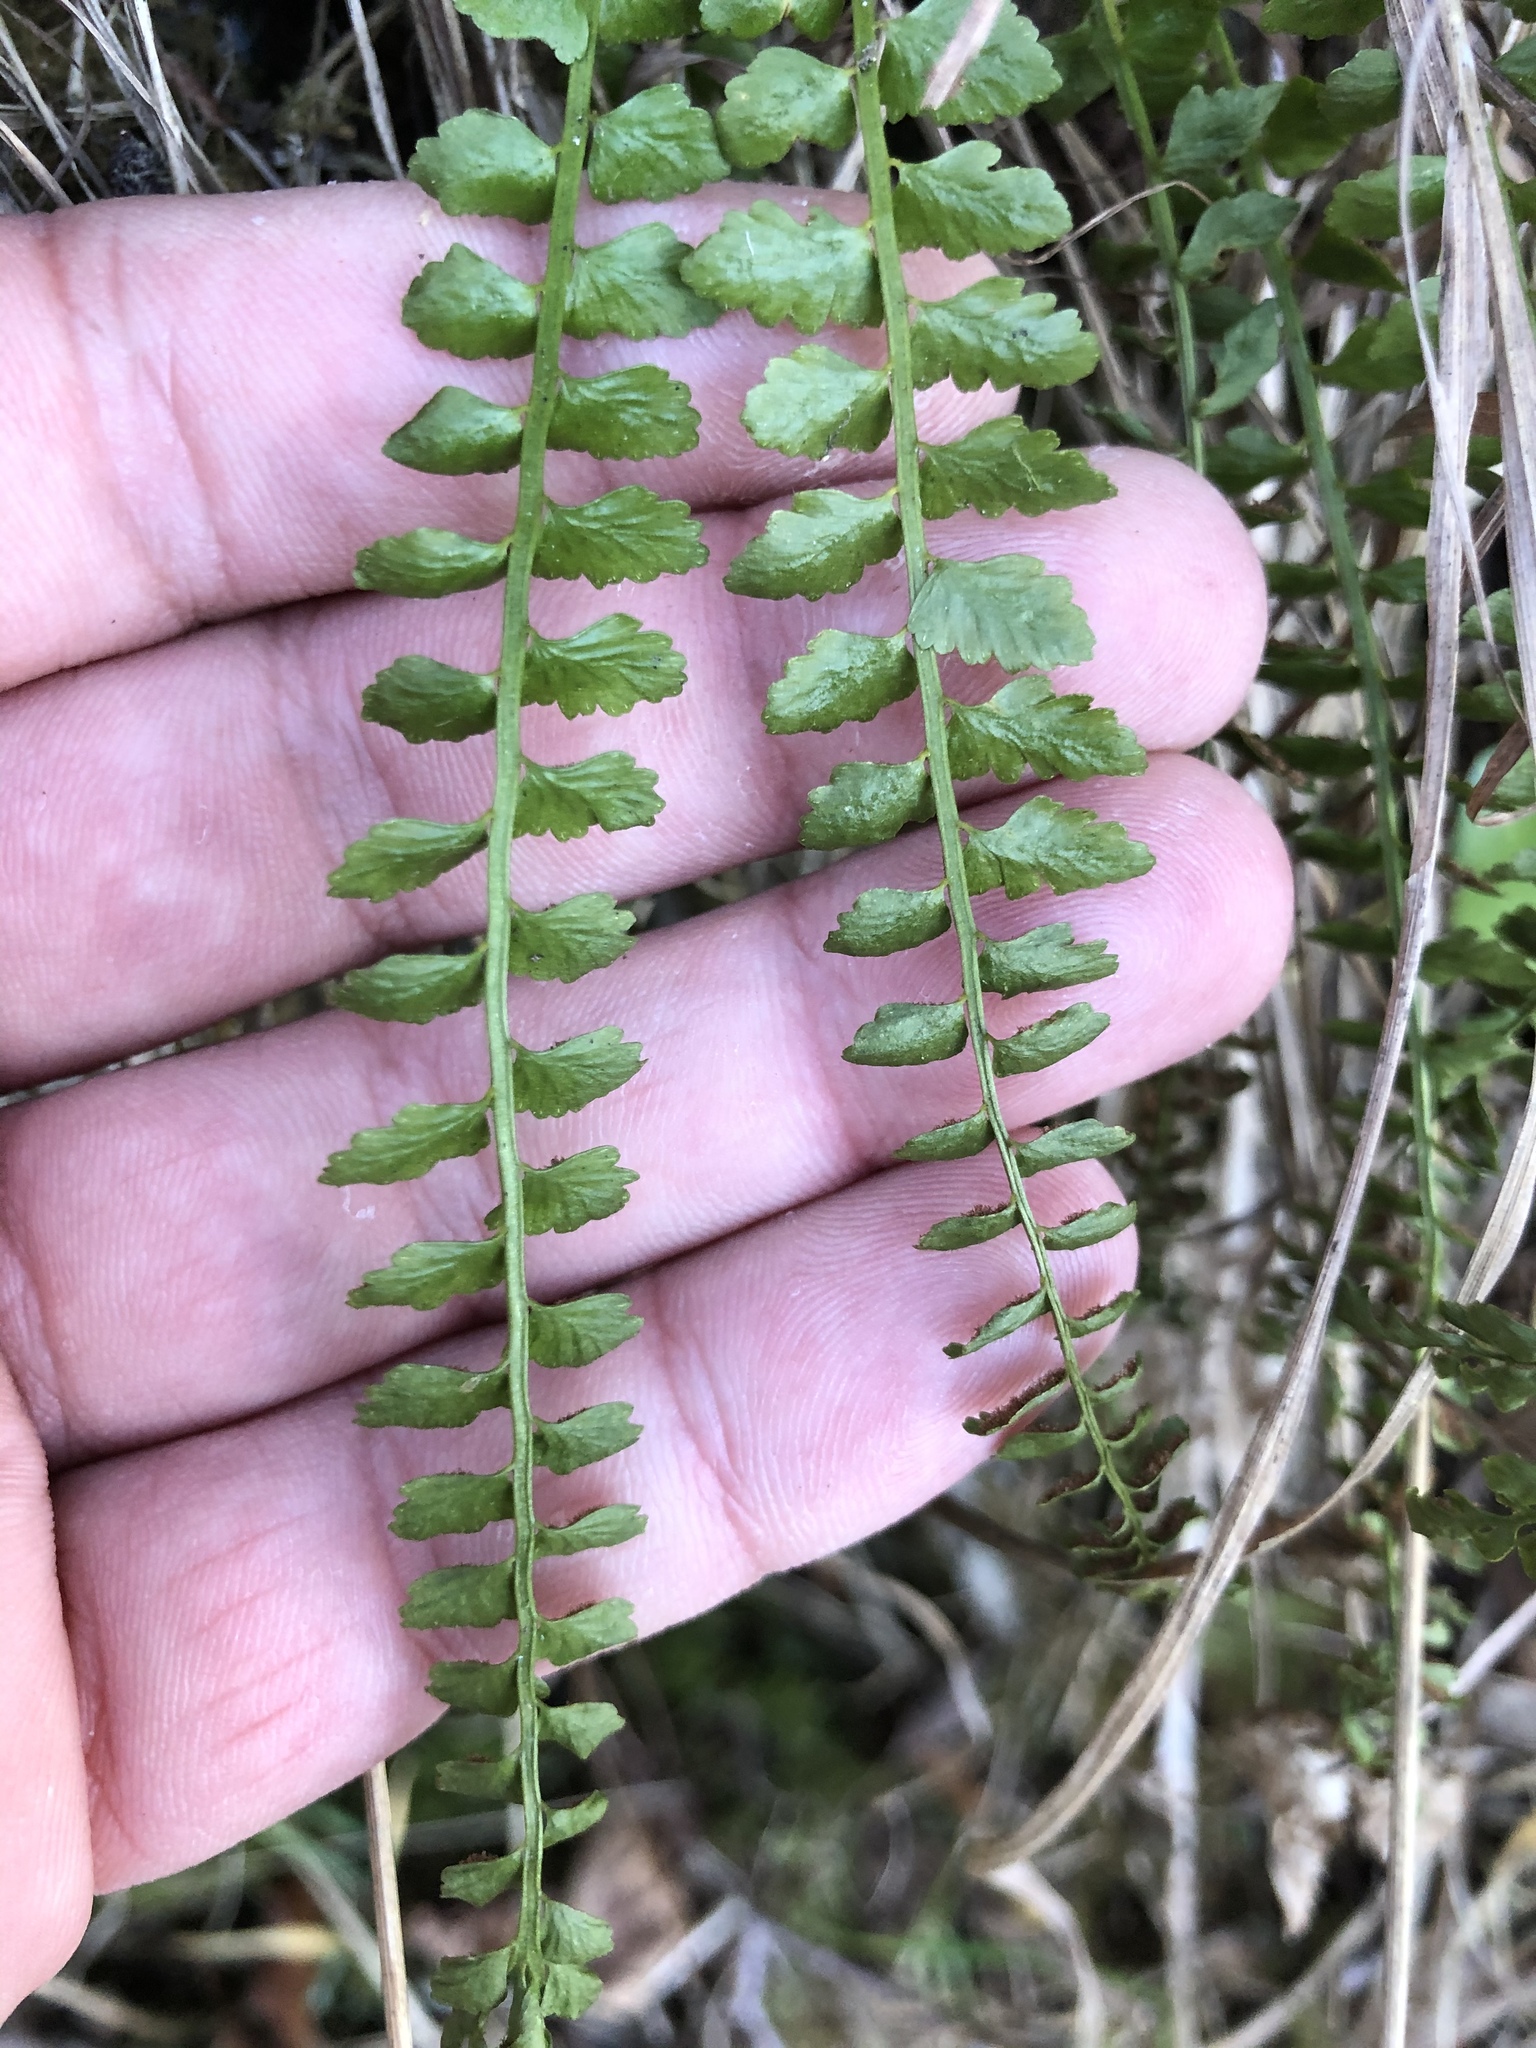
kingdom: Plantae
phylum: Tracheophyta
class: Polypodiopsida
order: Polypodiales
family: Aspleniaceae
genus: Asplenium
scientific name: Asplenium viride
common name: Green spleenwort
